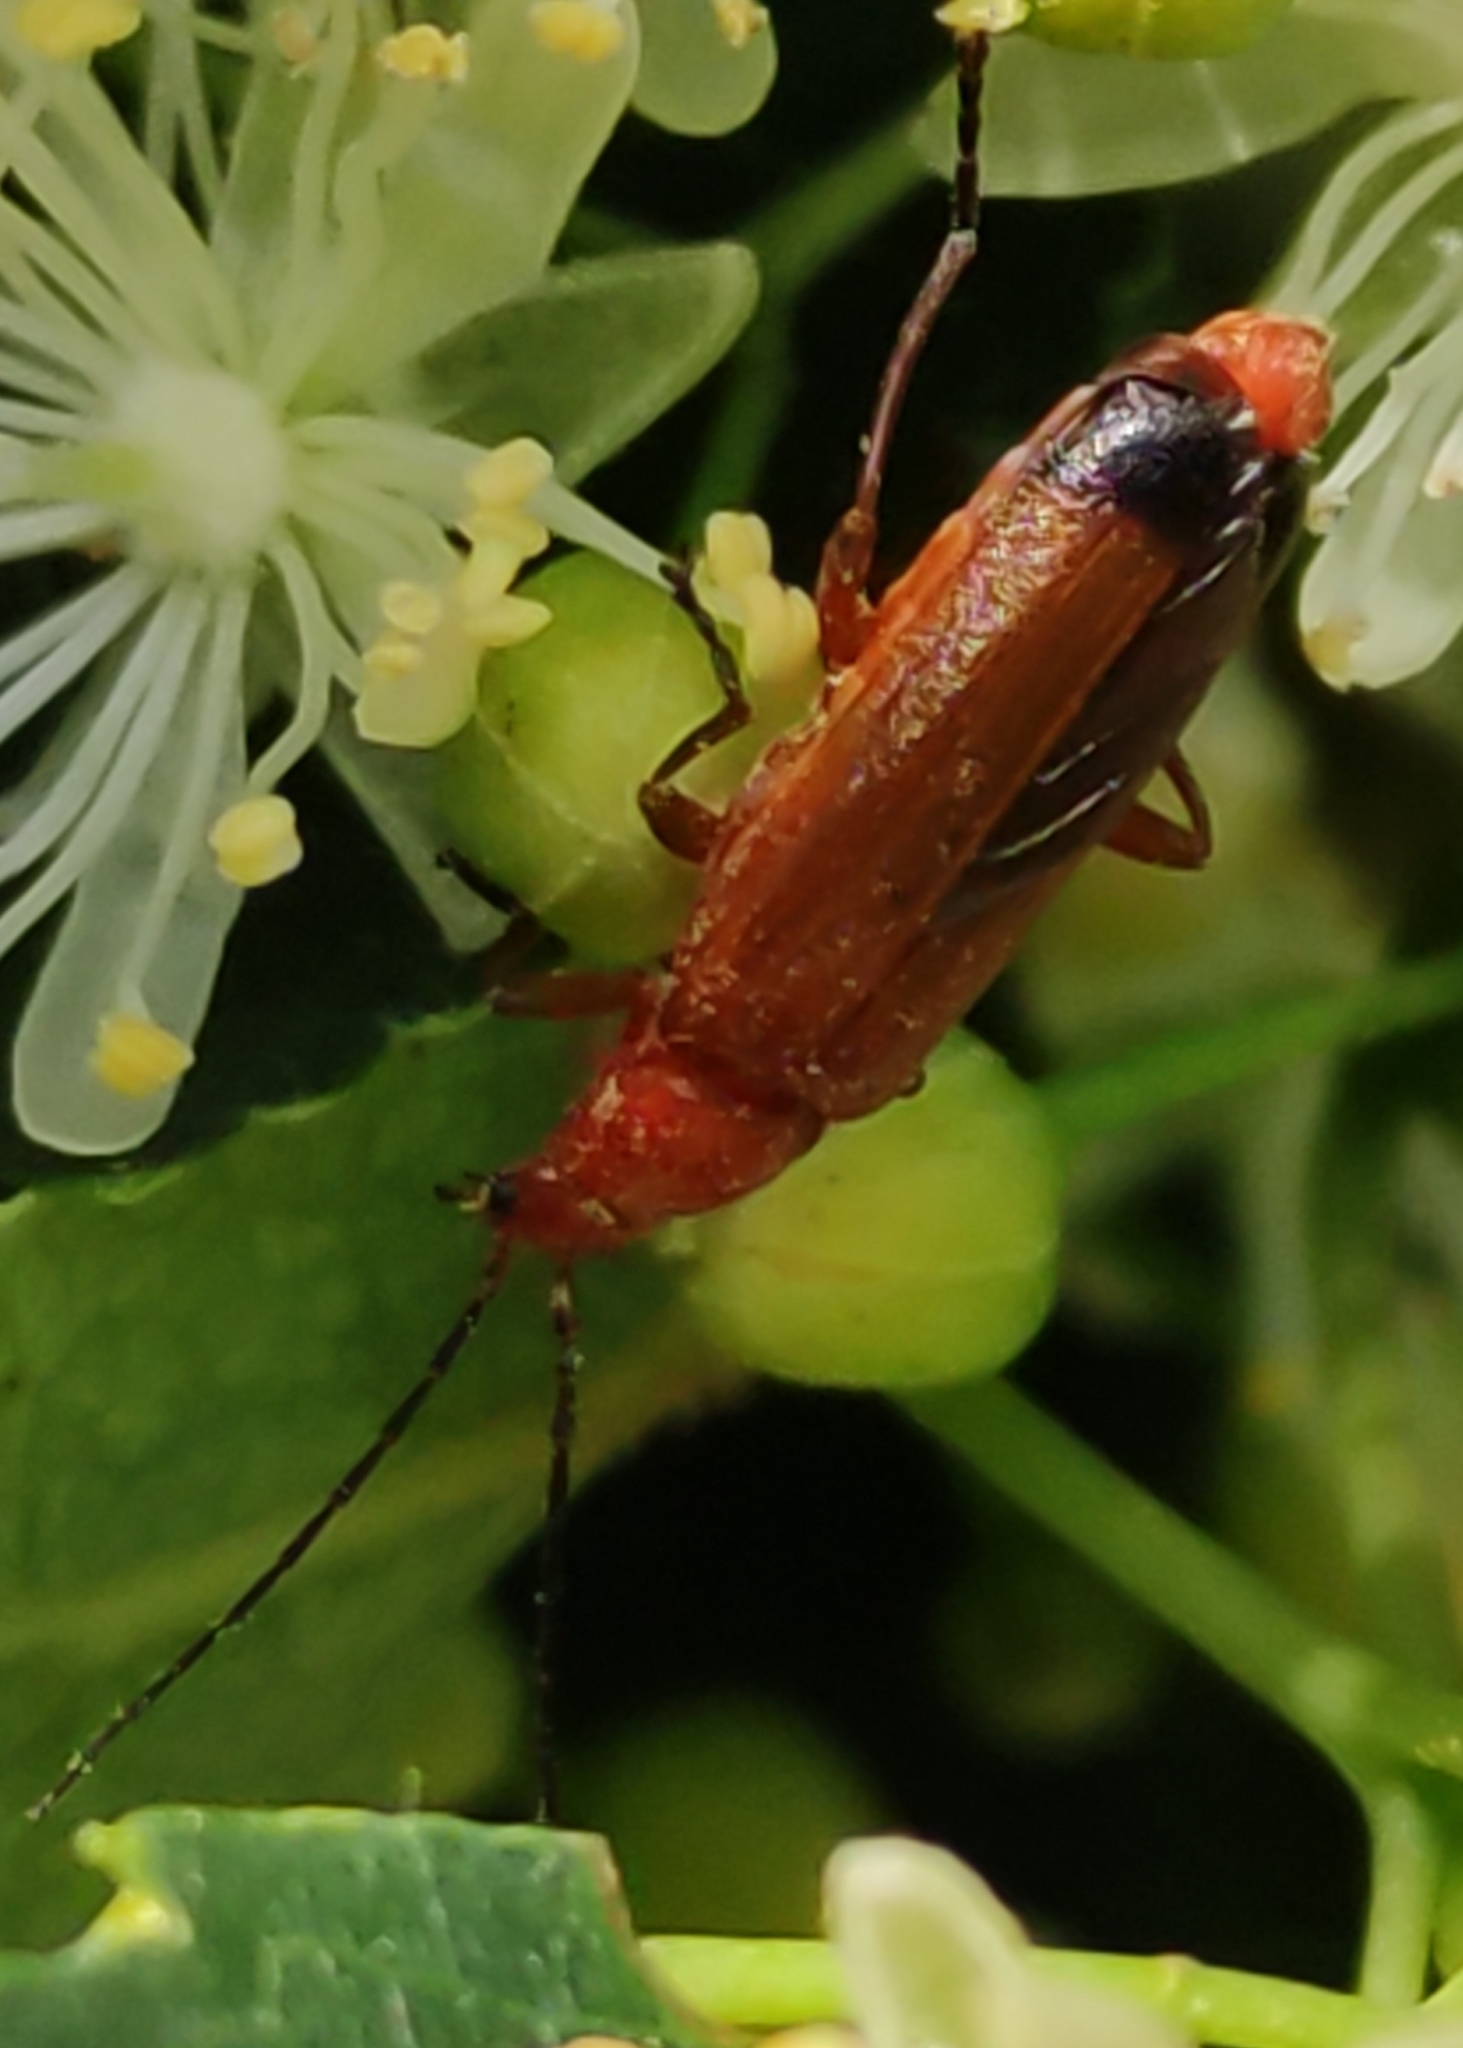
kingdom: Animalia
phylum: Arthropoda
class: Insecta
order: Coleoptera
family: Cantharidae
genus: Rhagonycha
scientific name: Rhagonycha fulva
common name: Common red soldier beetle
